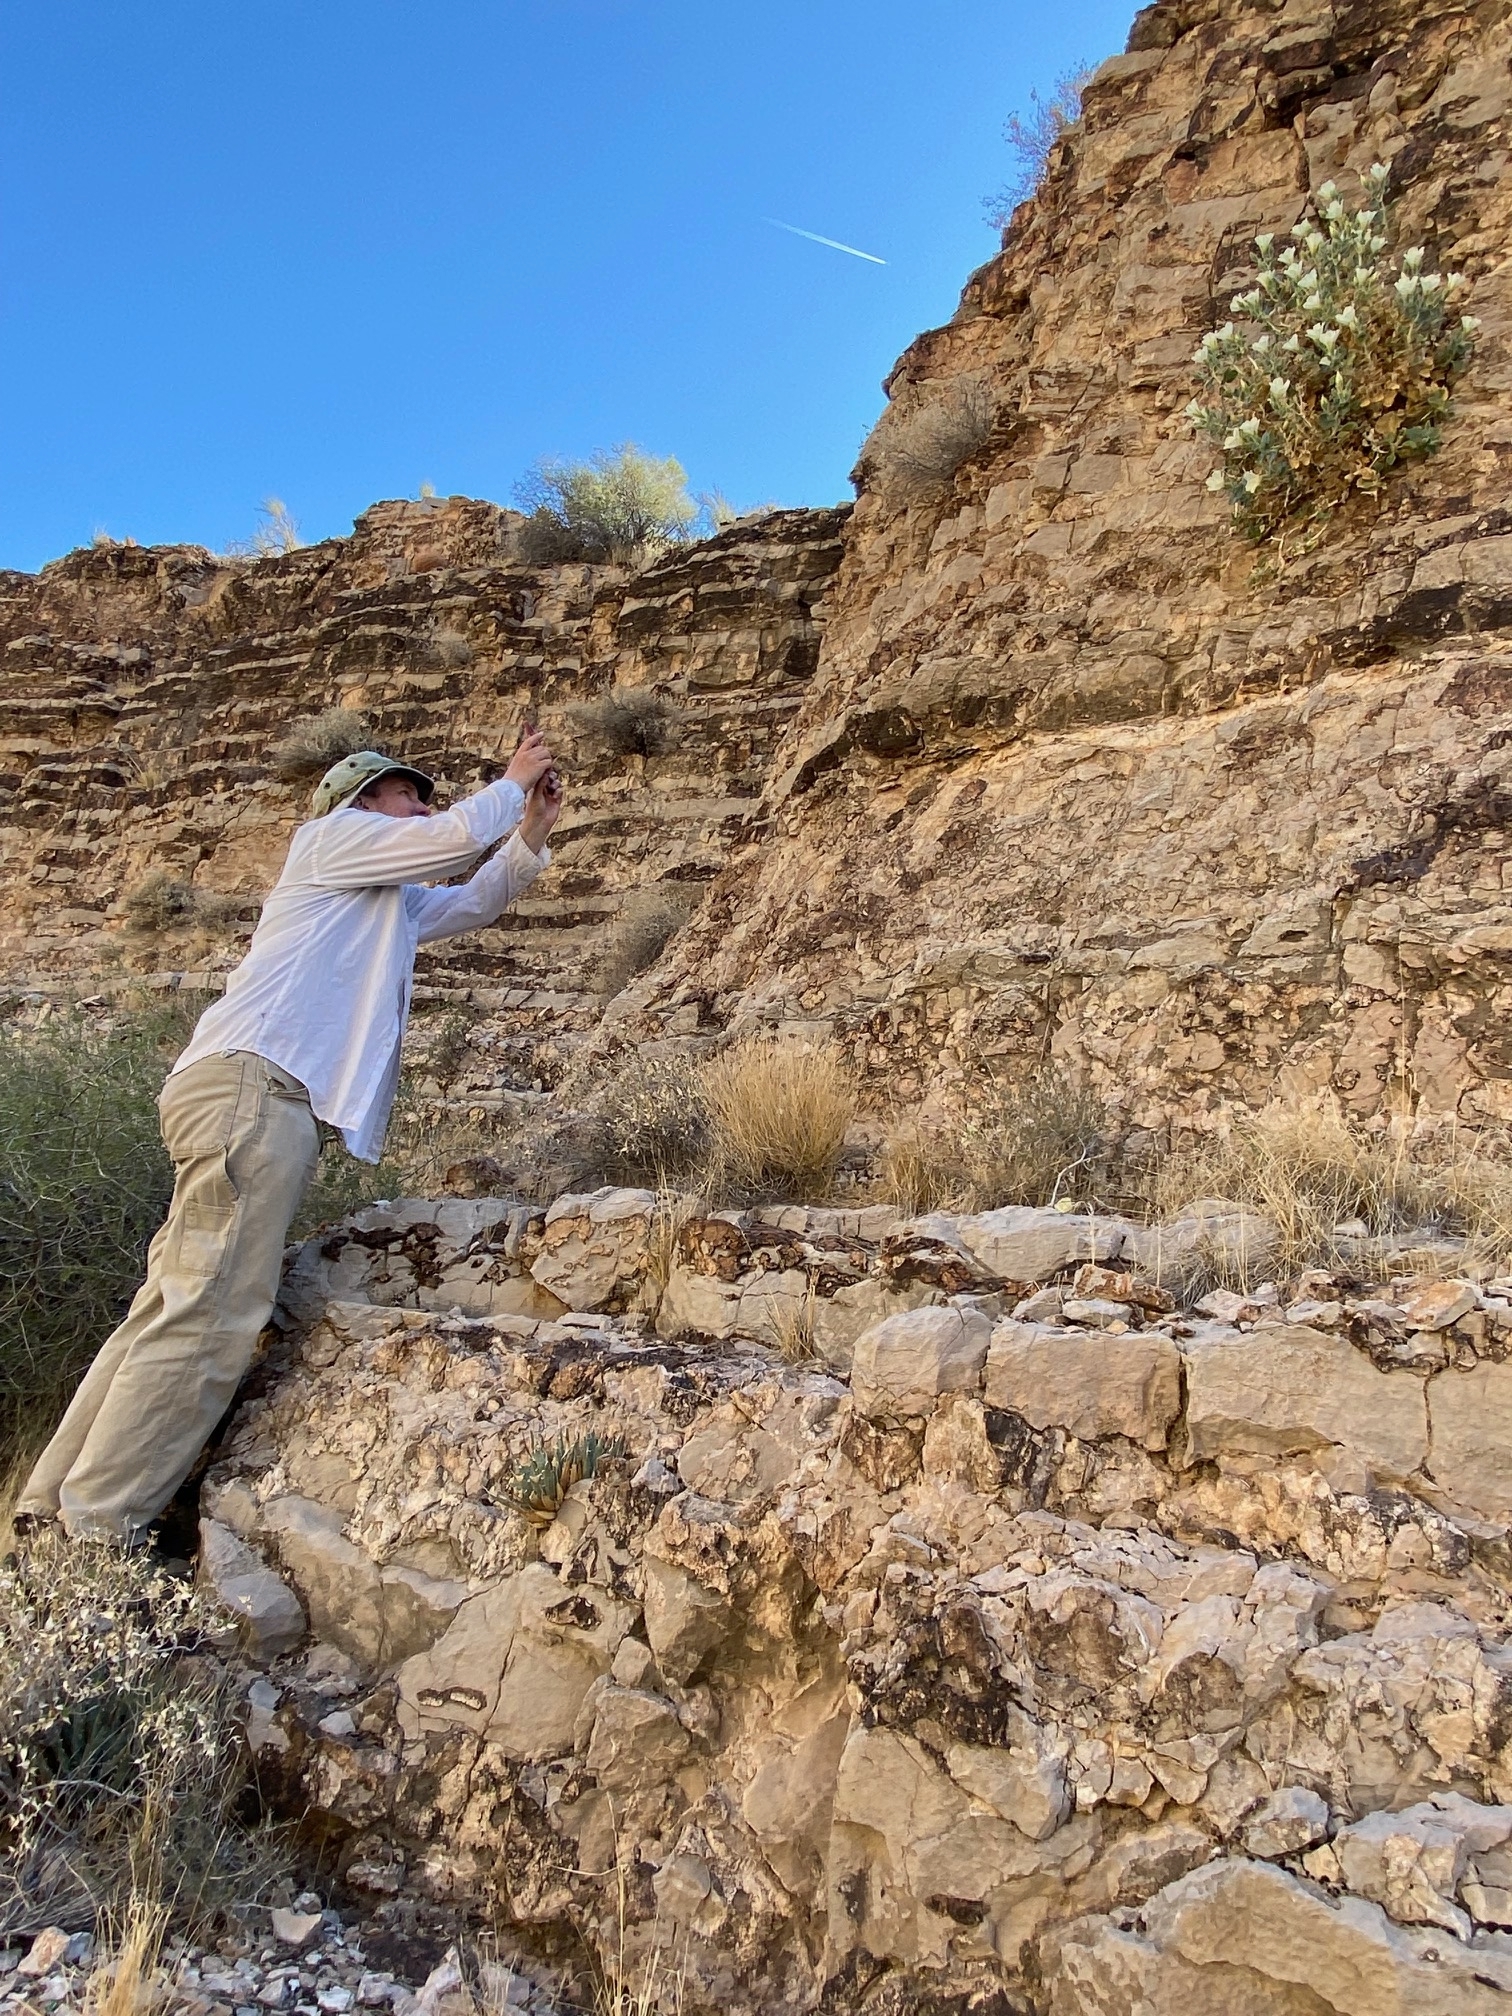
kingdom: Plantae
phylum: Tracheophyta
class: Magnoliopsida
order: Cornales
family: Loasaceae
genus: Eucnide
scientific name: Eucnide urens
